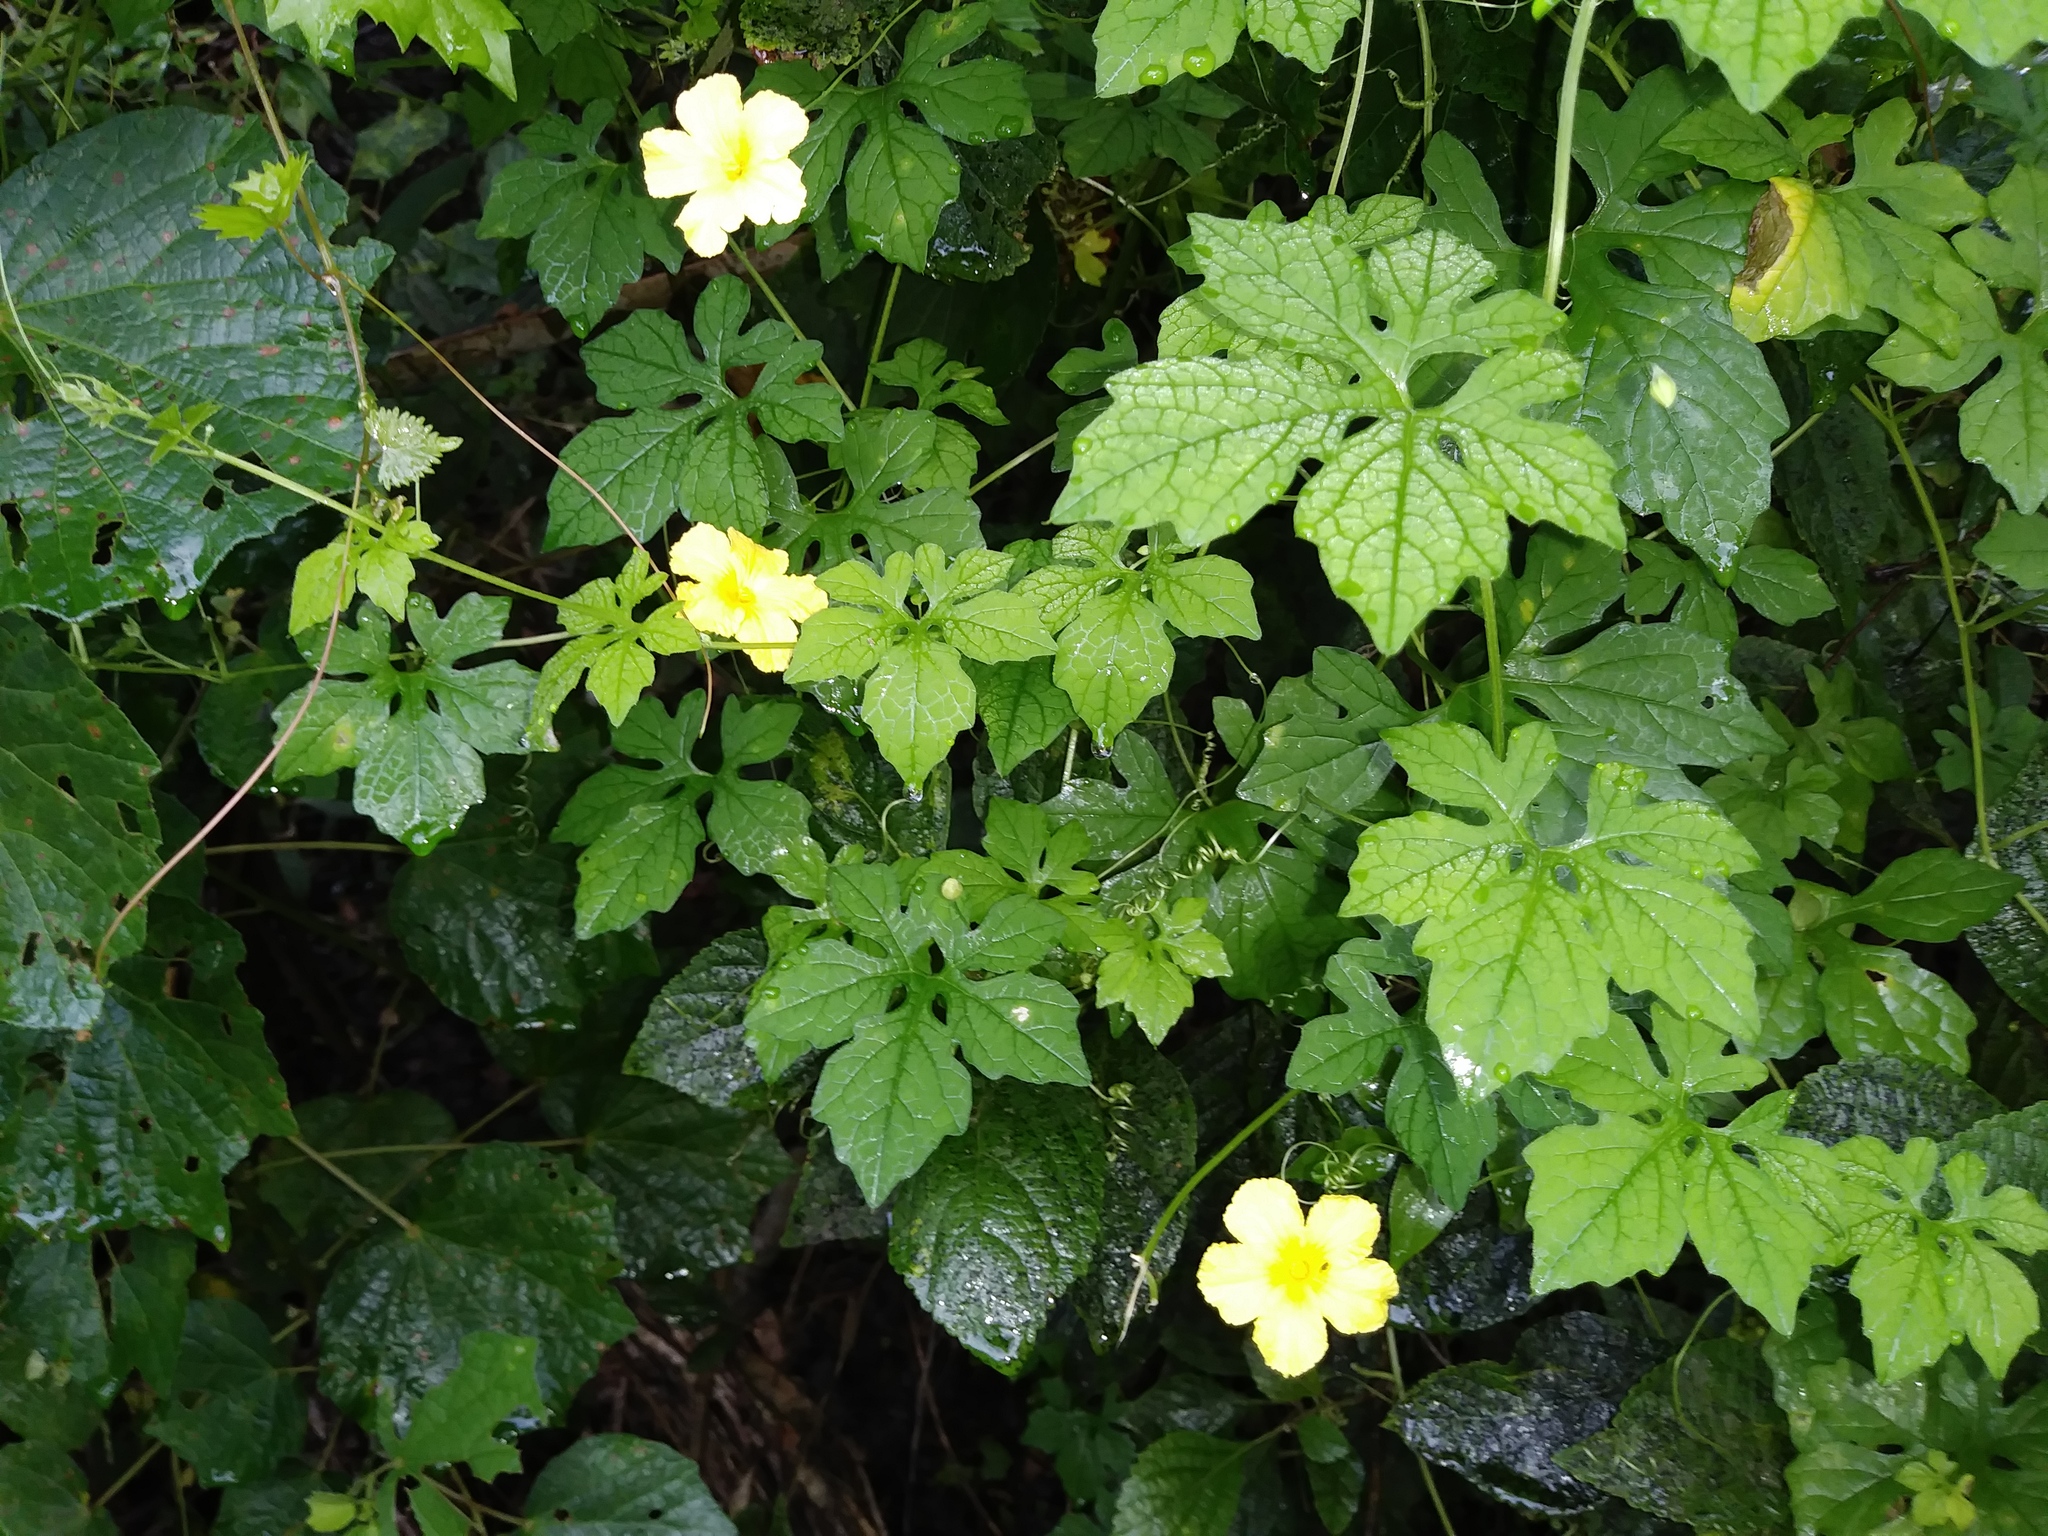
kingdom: Plantae
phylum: Tracheophyta
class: Magnoliopsida
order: Cucurbitales
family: Cucurbitaceae
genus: Momordica
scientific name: Momordica charantia
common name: Balsampear
